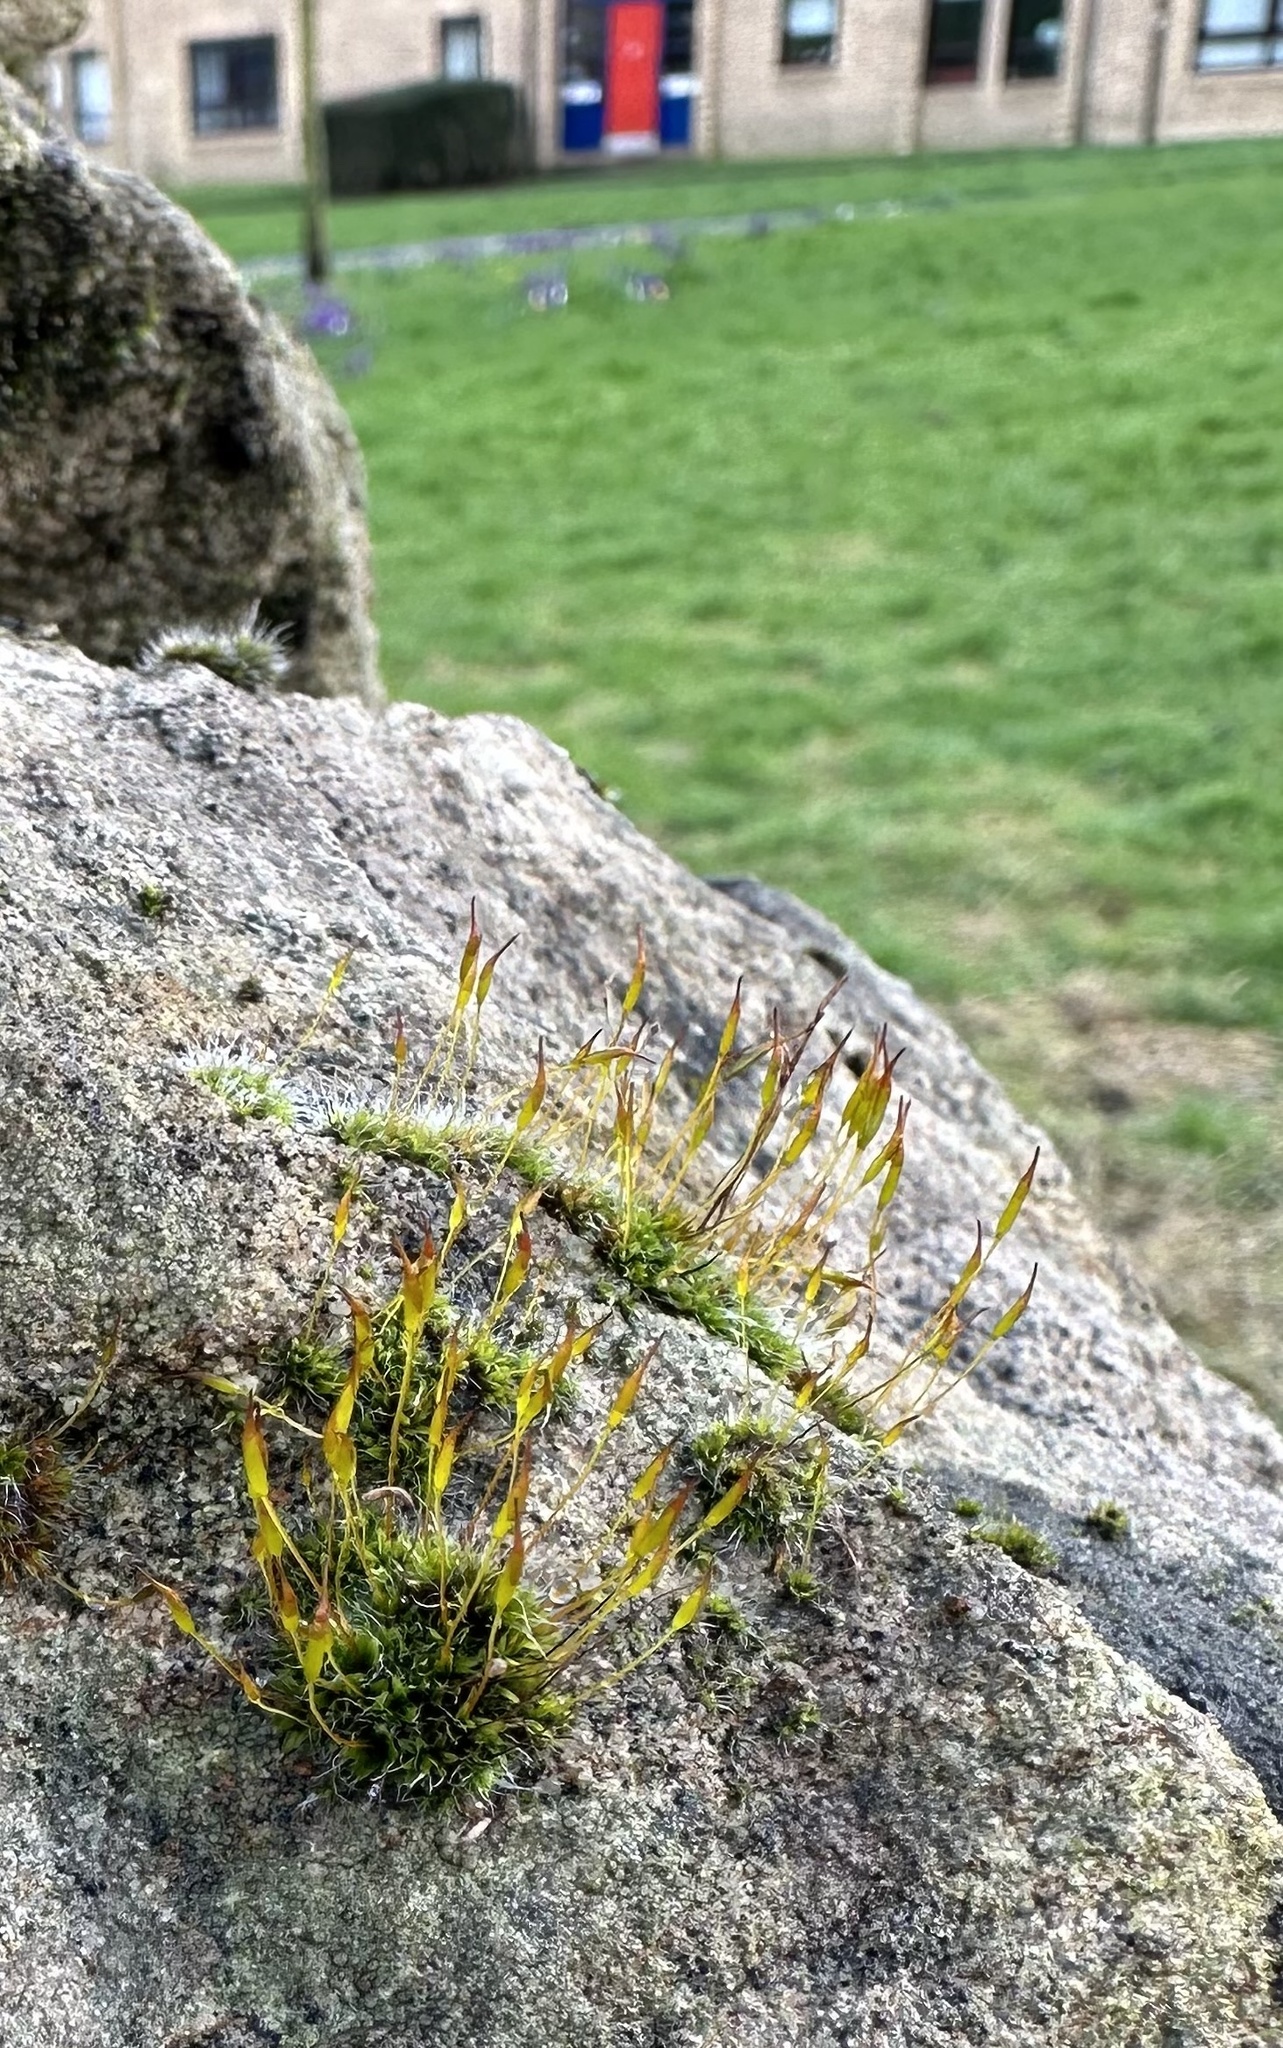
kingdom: Plantae
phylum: Bryophyta
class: Bryopsida
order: Pottiales
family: Pottiaceae
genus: Tortula
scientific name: Tortula muralis
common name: Wall screw-moss
